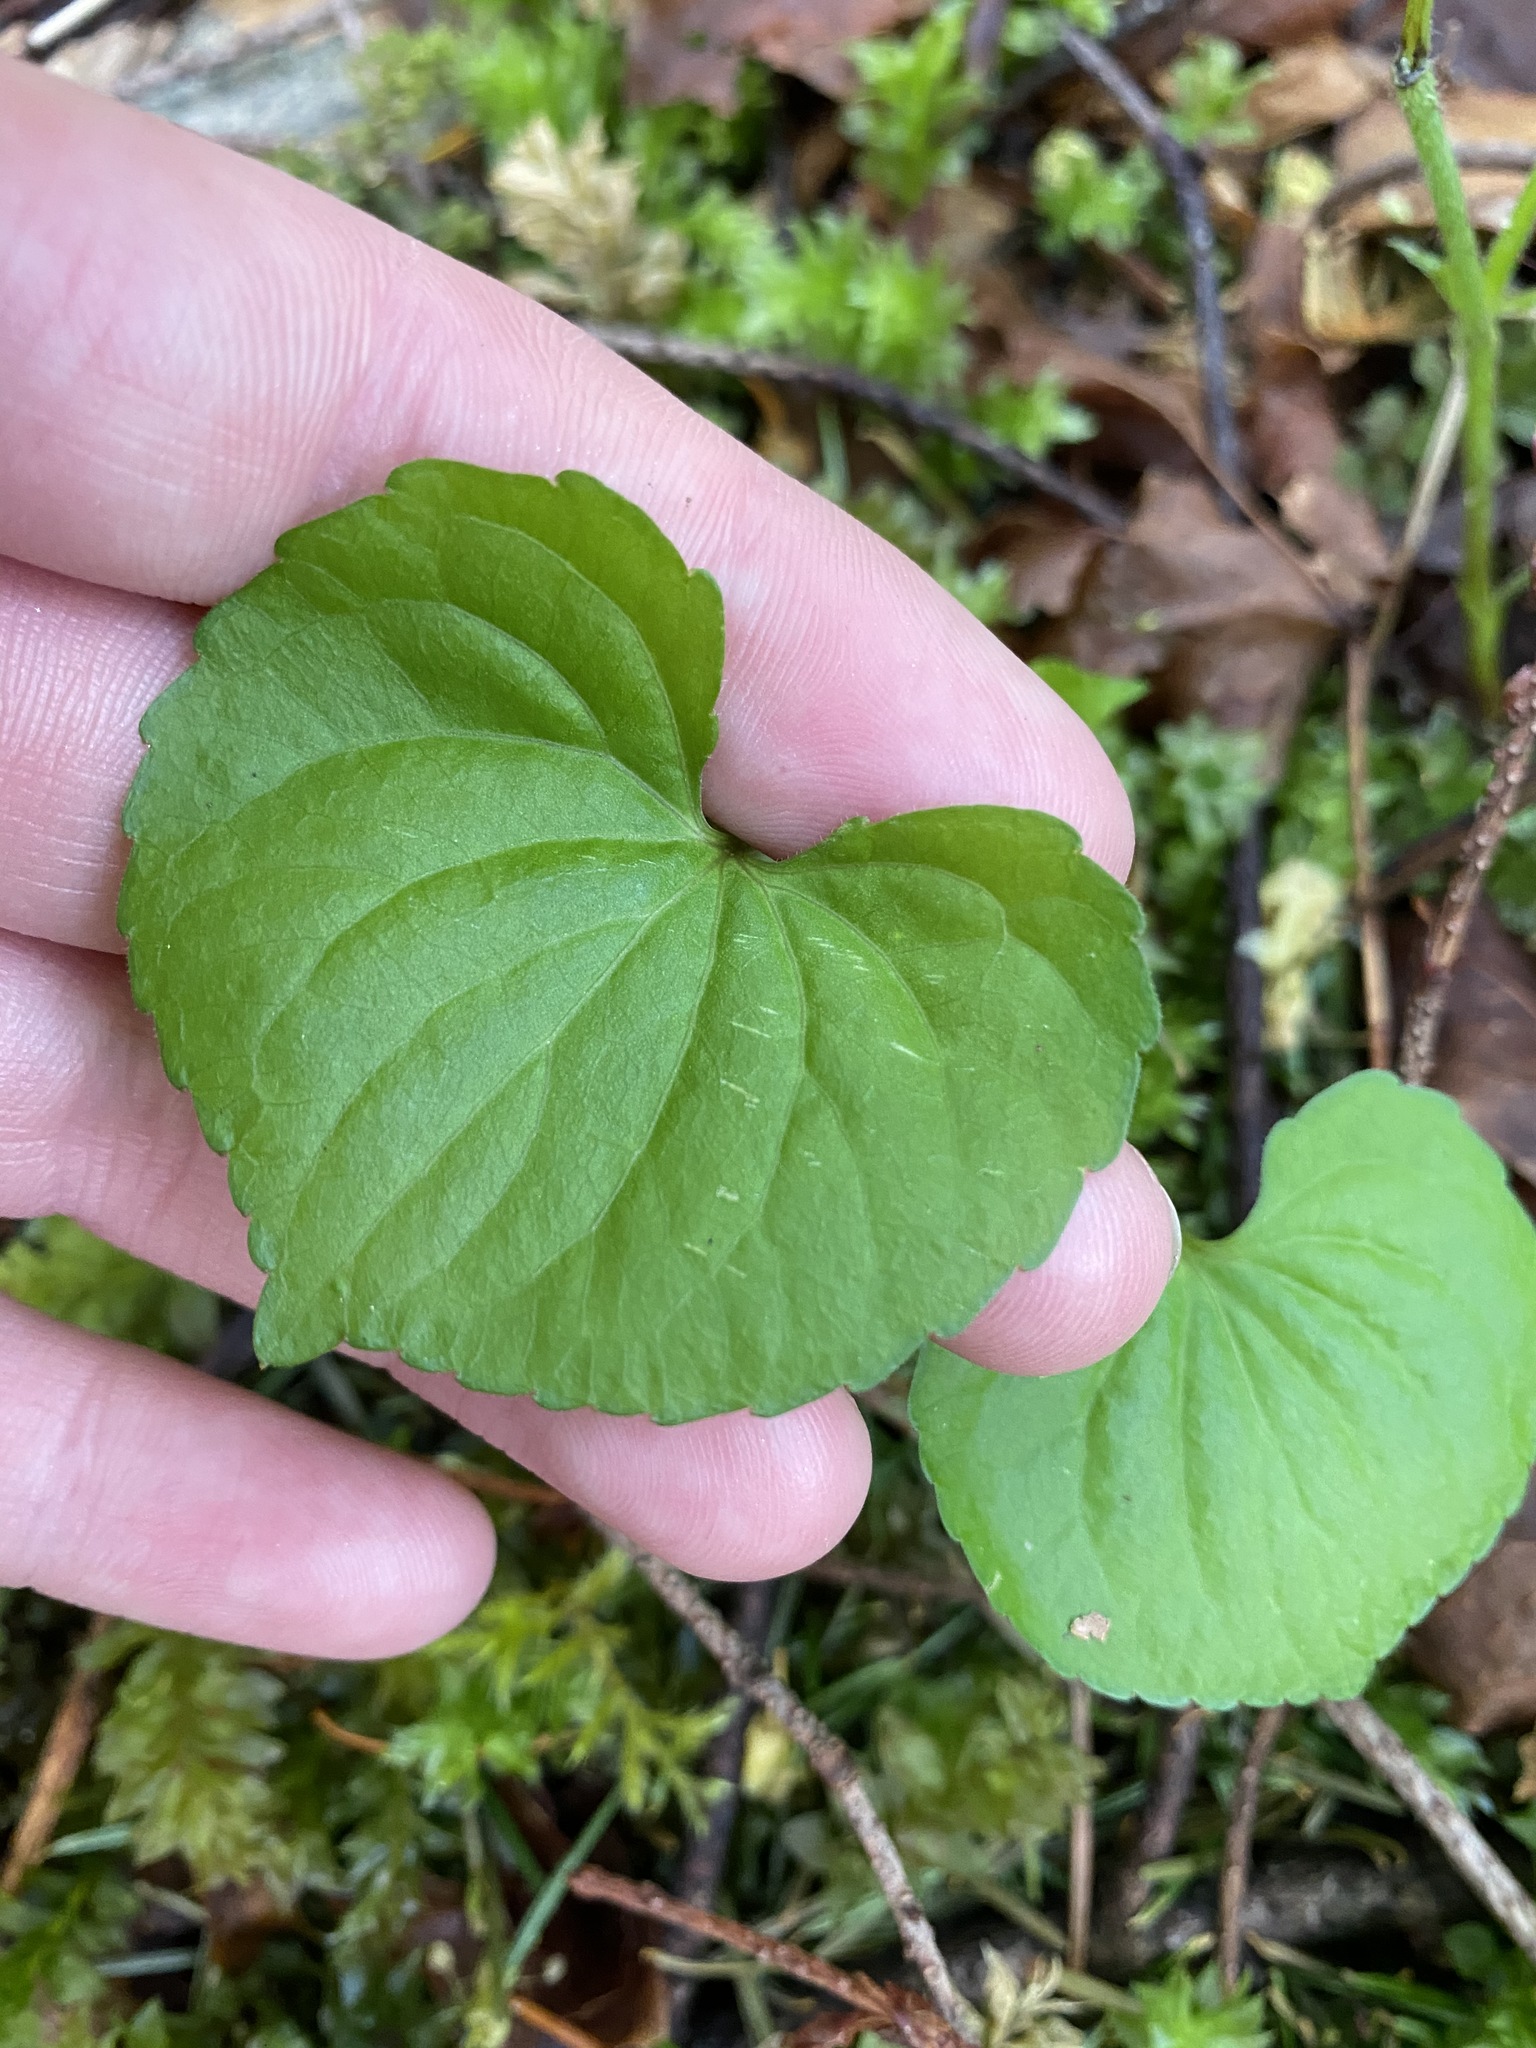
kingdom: Plantae
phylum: Tracheophyta
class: Magnoliopsida
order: Malpighiales
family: Violaceae
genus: Viola
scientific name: Viola glabella
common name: Stream violet
